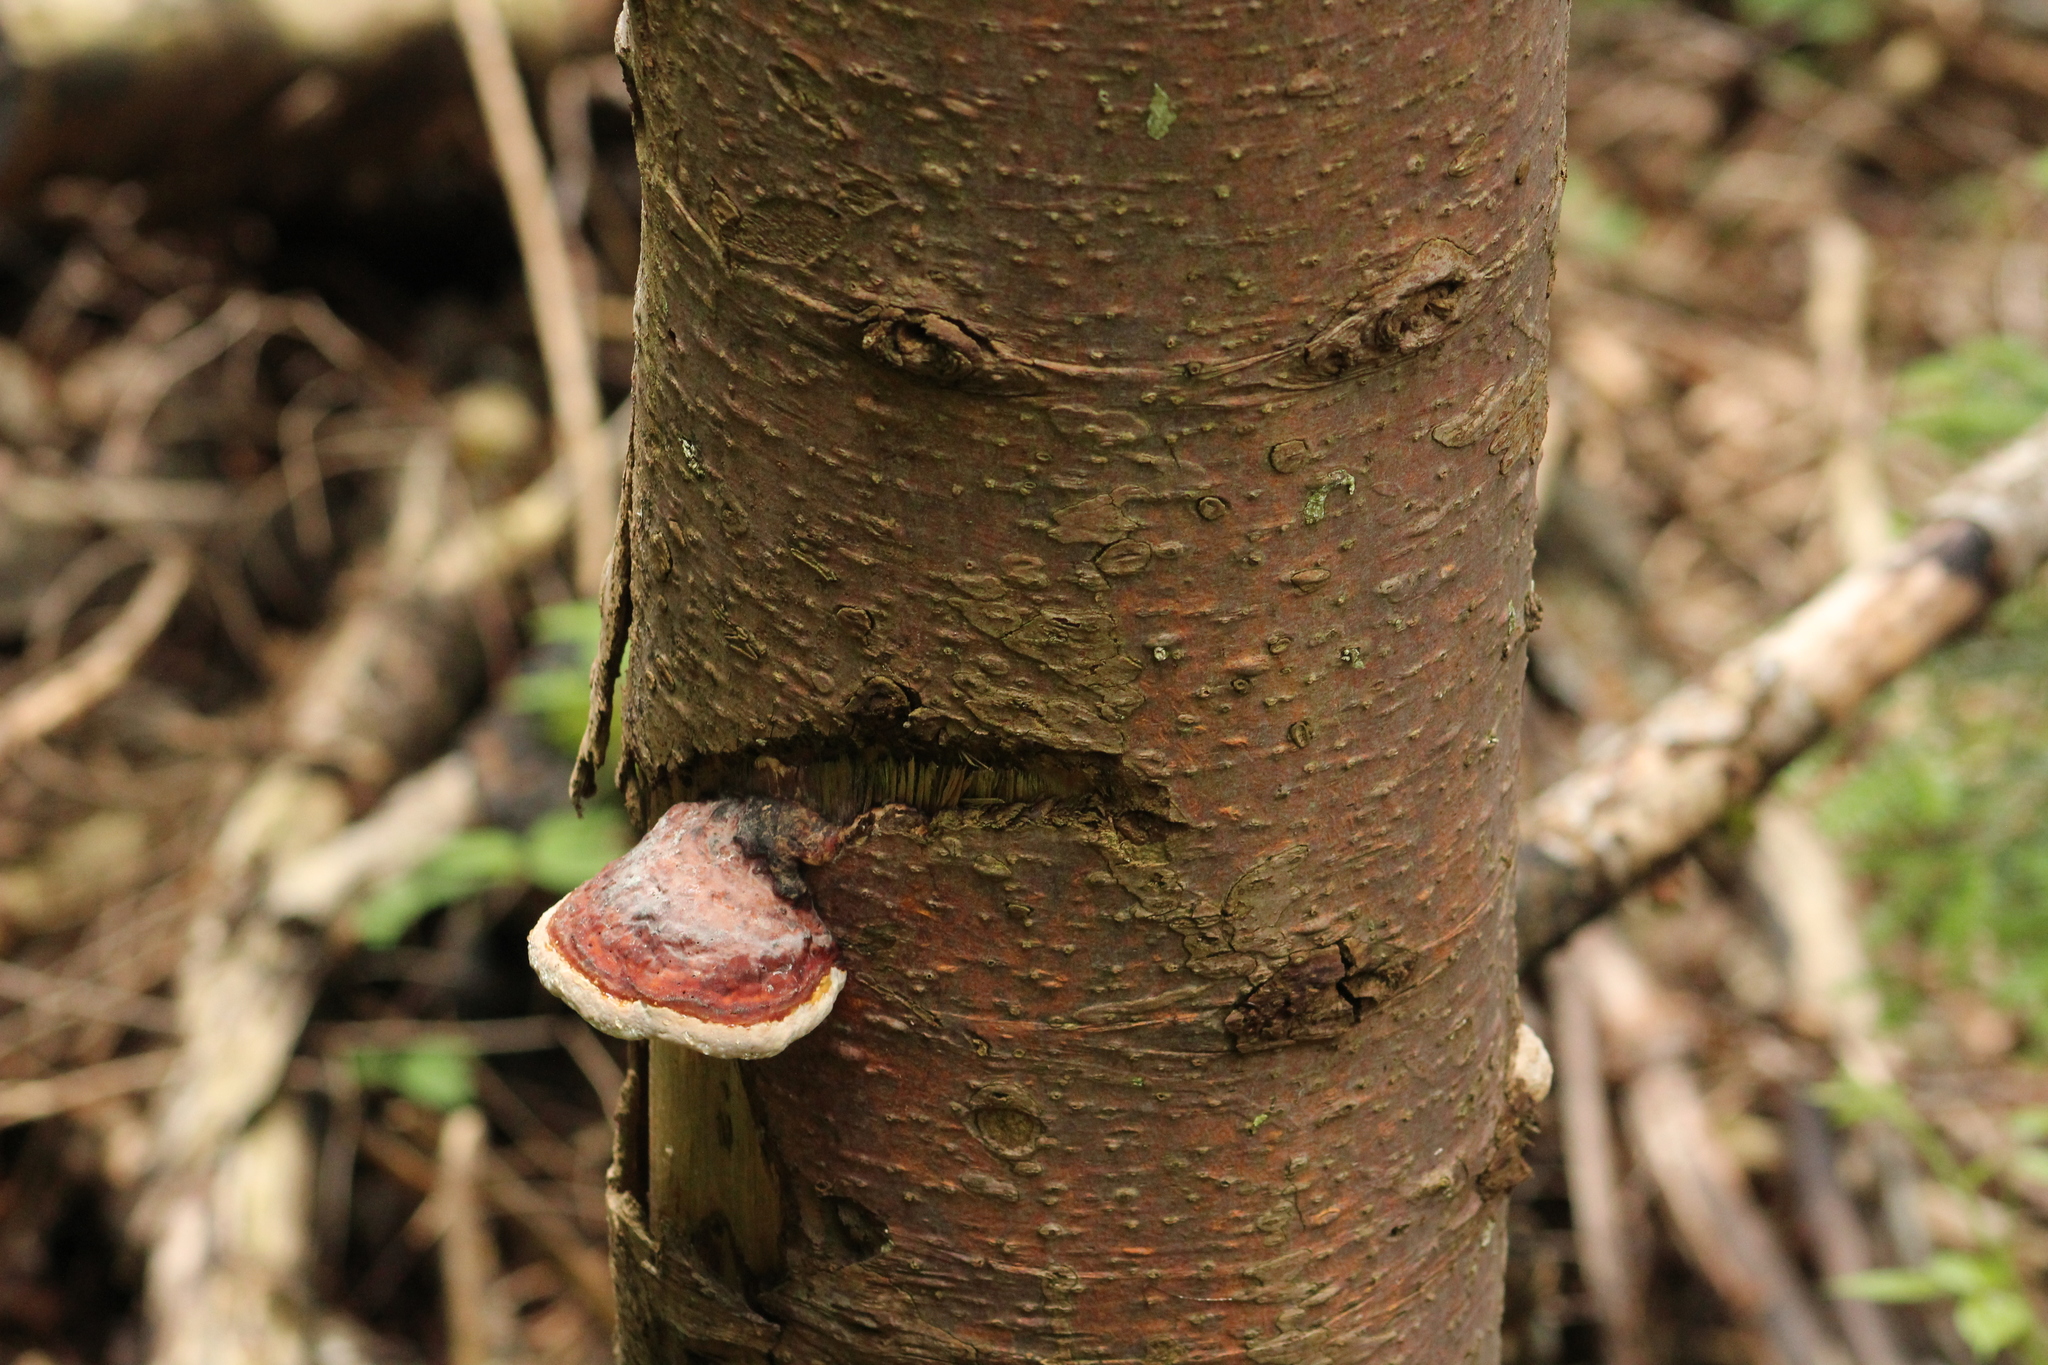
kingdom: Fungi
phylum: Basidiomycota
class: Agaricomycetes
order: Polyporales
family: Fomitopsidaceae
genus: Fomitopsis
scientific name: Fomitopsis pinicola
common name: Red-belted bracket
